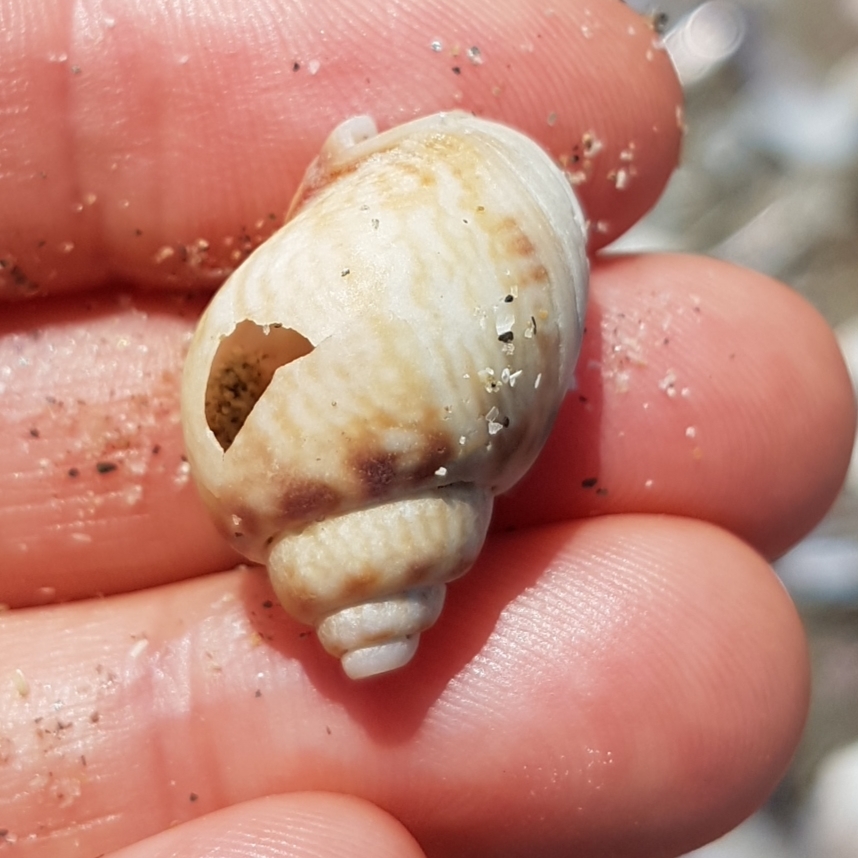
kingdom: Animalia
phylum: Mollusca
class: Gastropoda
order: Neogastropoda
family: Nassariidae
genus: Tritia
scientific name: Tritia mutabilis
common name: Mutable nassa
